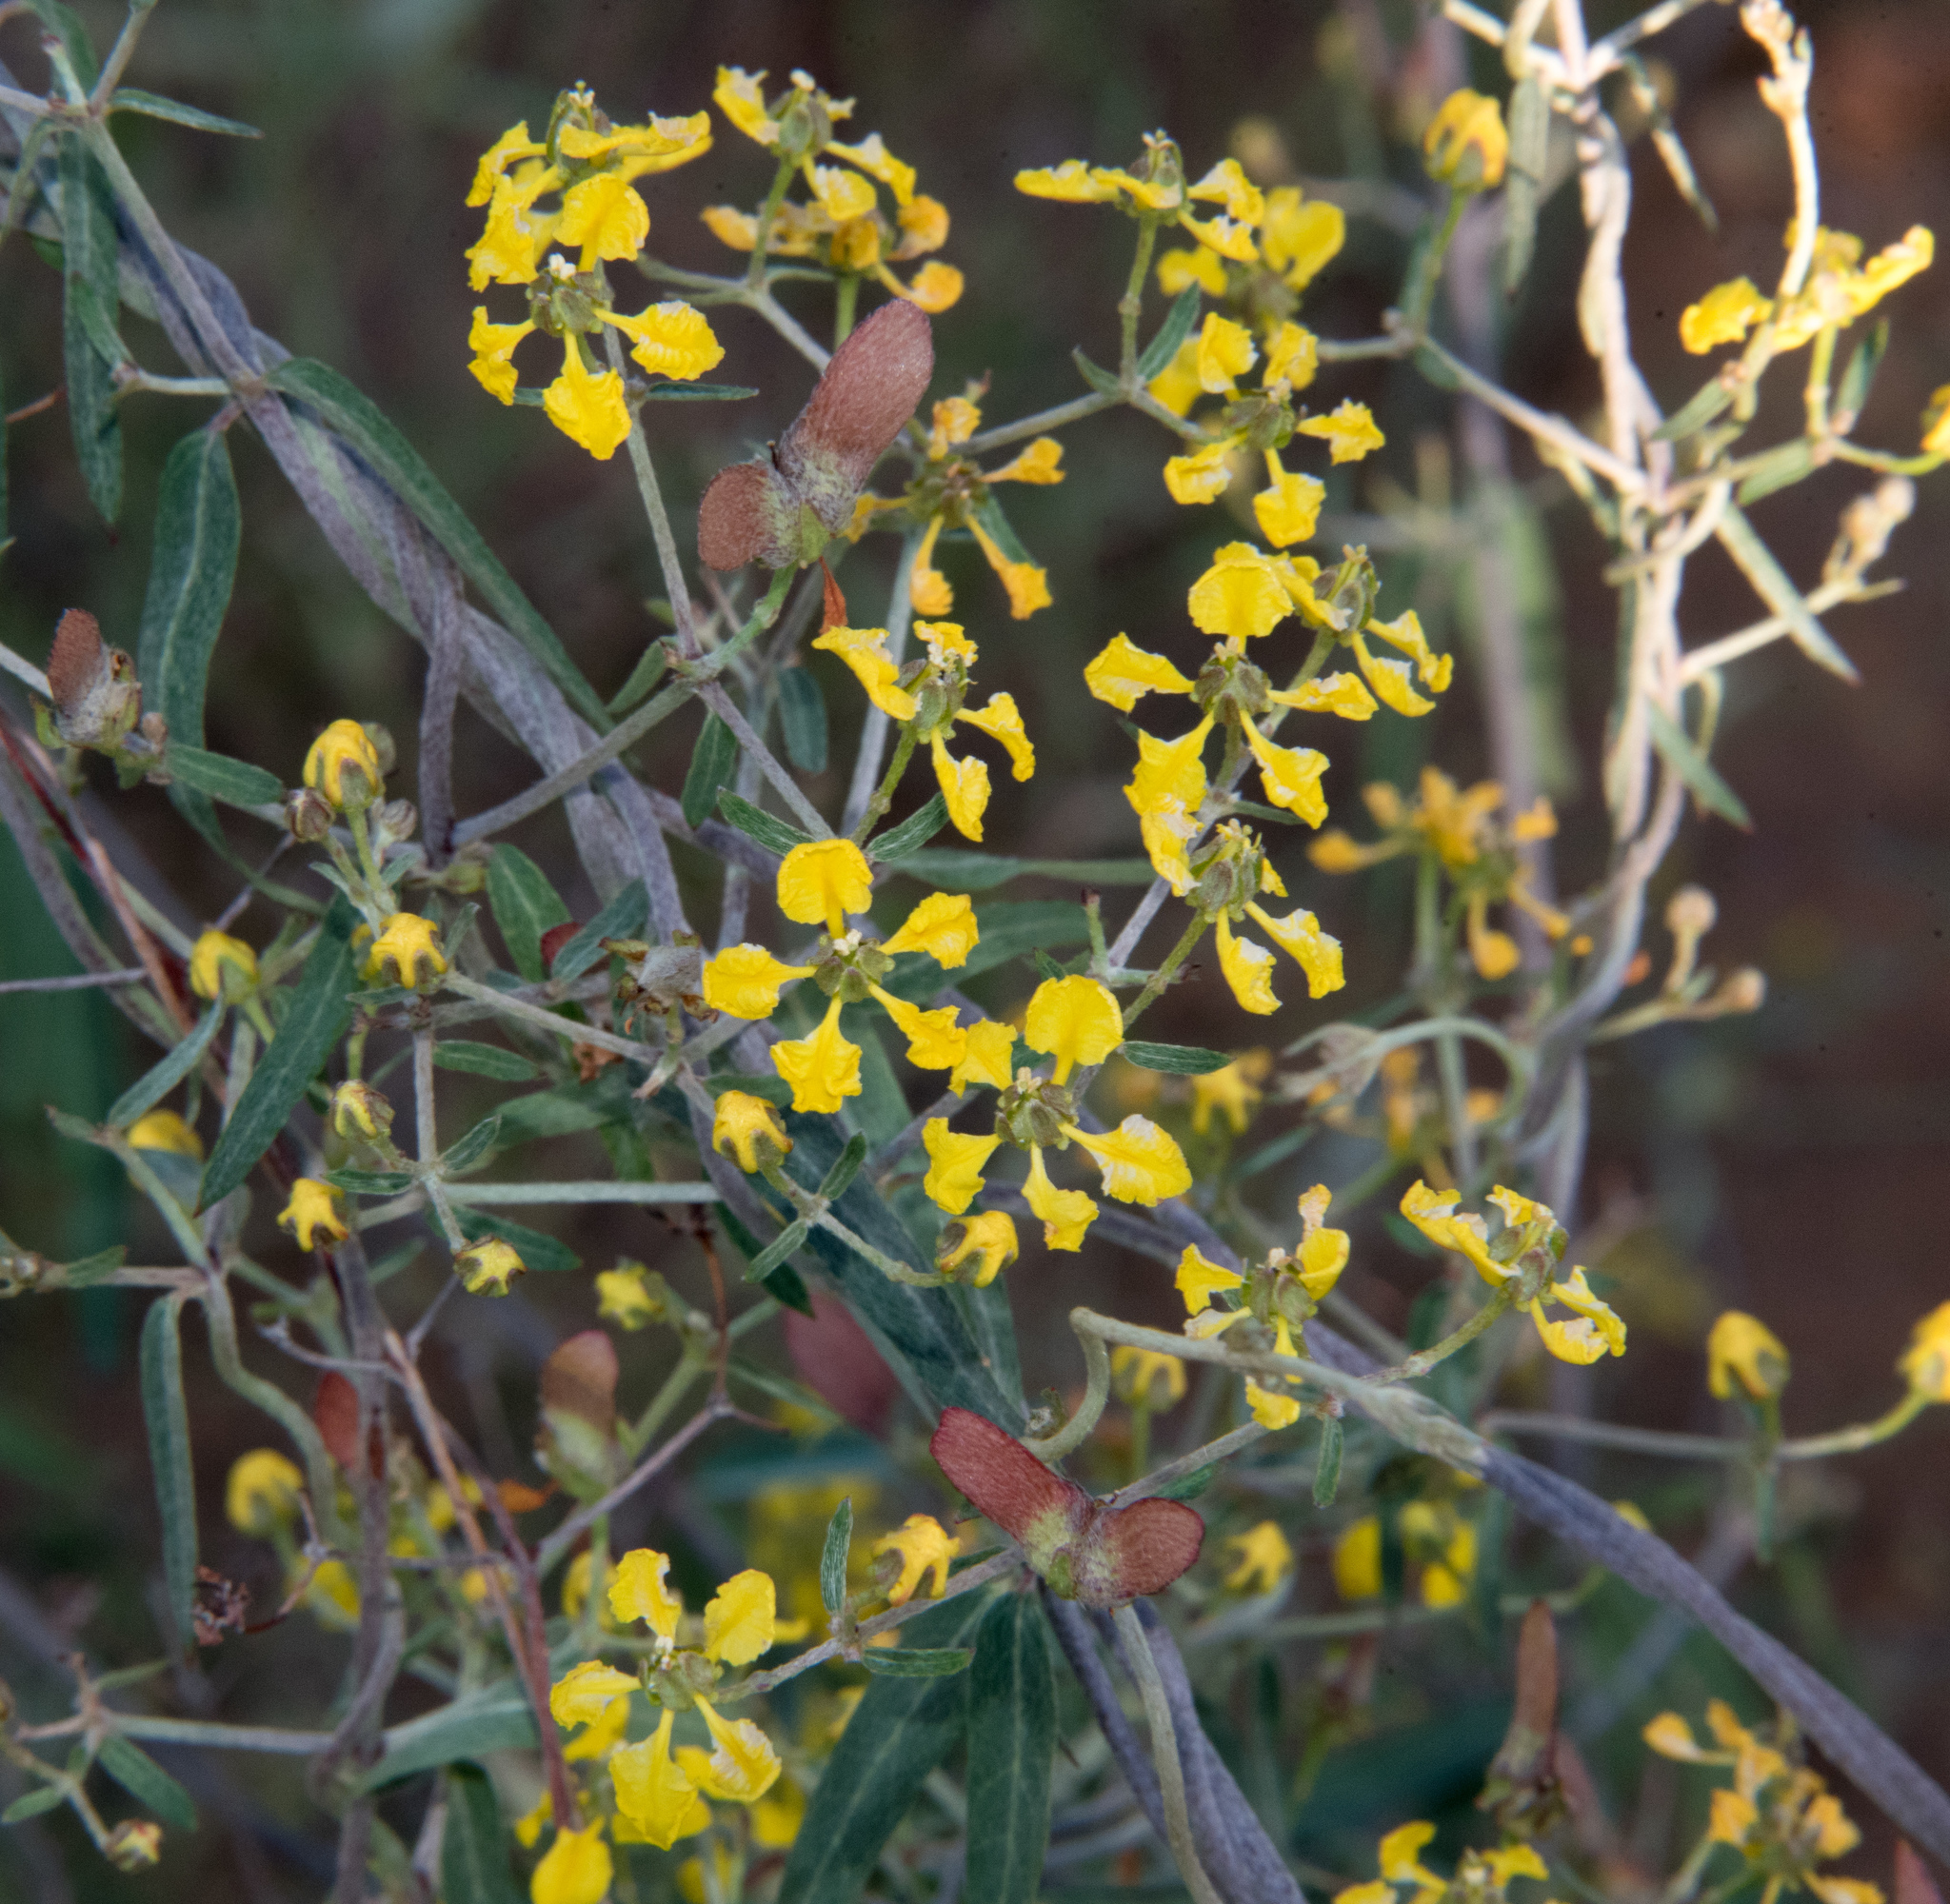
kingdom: Plantae
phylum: Tracheophyta
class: Magnoliopsida
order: Malpighiales
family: Malpighiaceae
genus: Cottsia
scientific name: Cottsia gracilis
